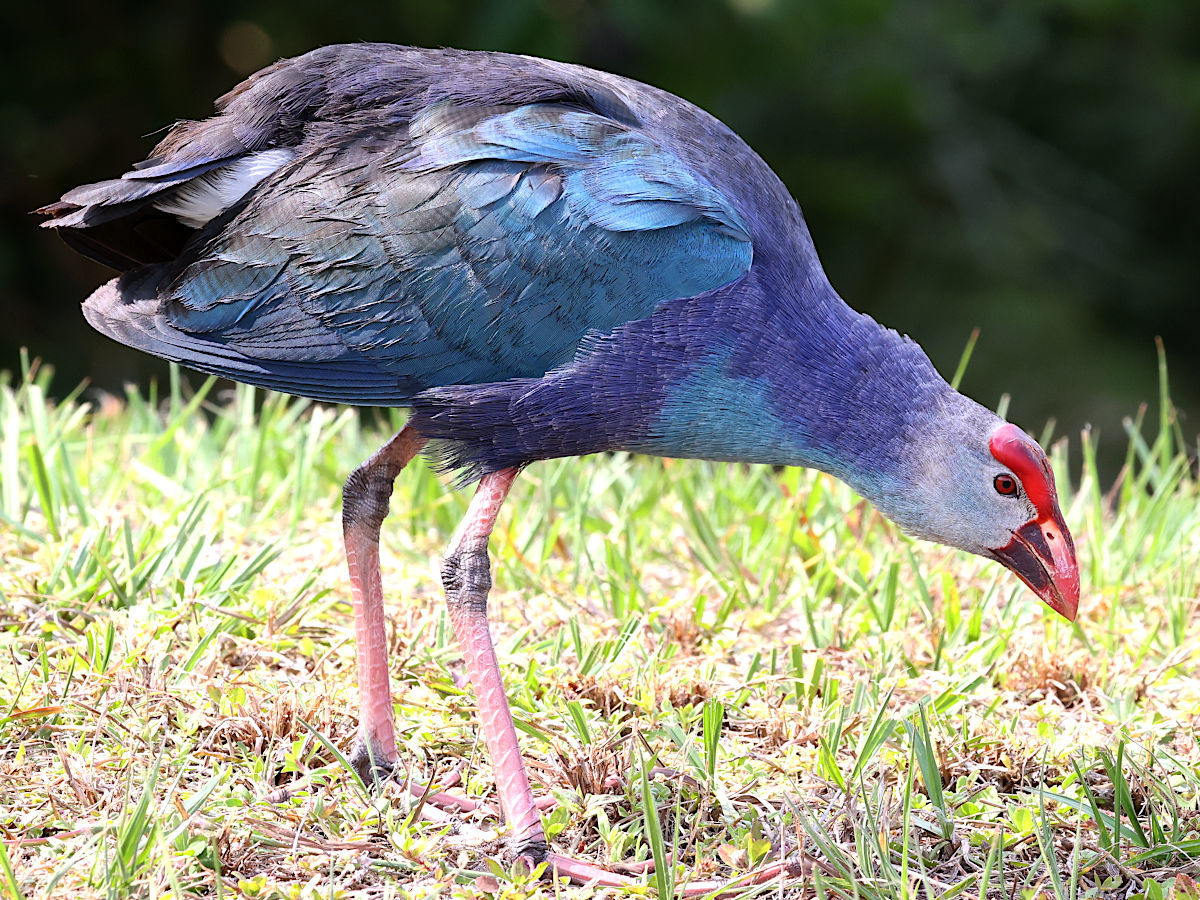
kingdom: Animalia
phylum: Chordata
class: Aves
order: Gruiformes
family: Rallidae
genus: Porphyrio
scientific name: Porphyrio porphyrio
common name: Purple swamphen
